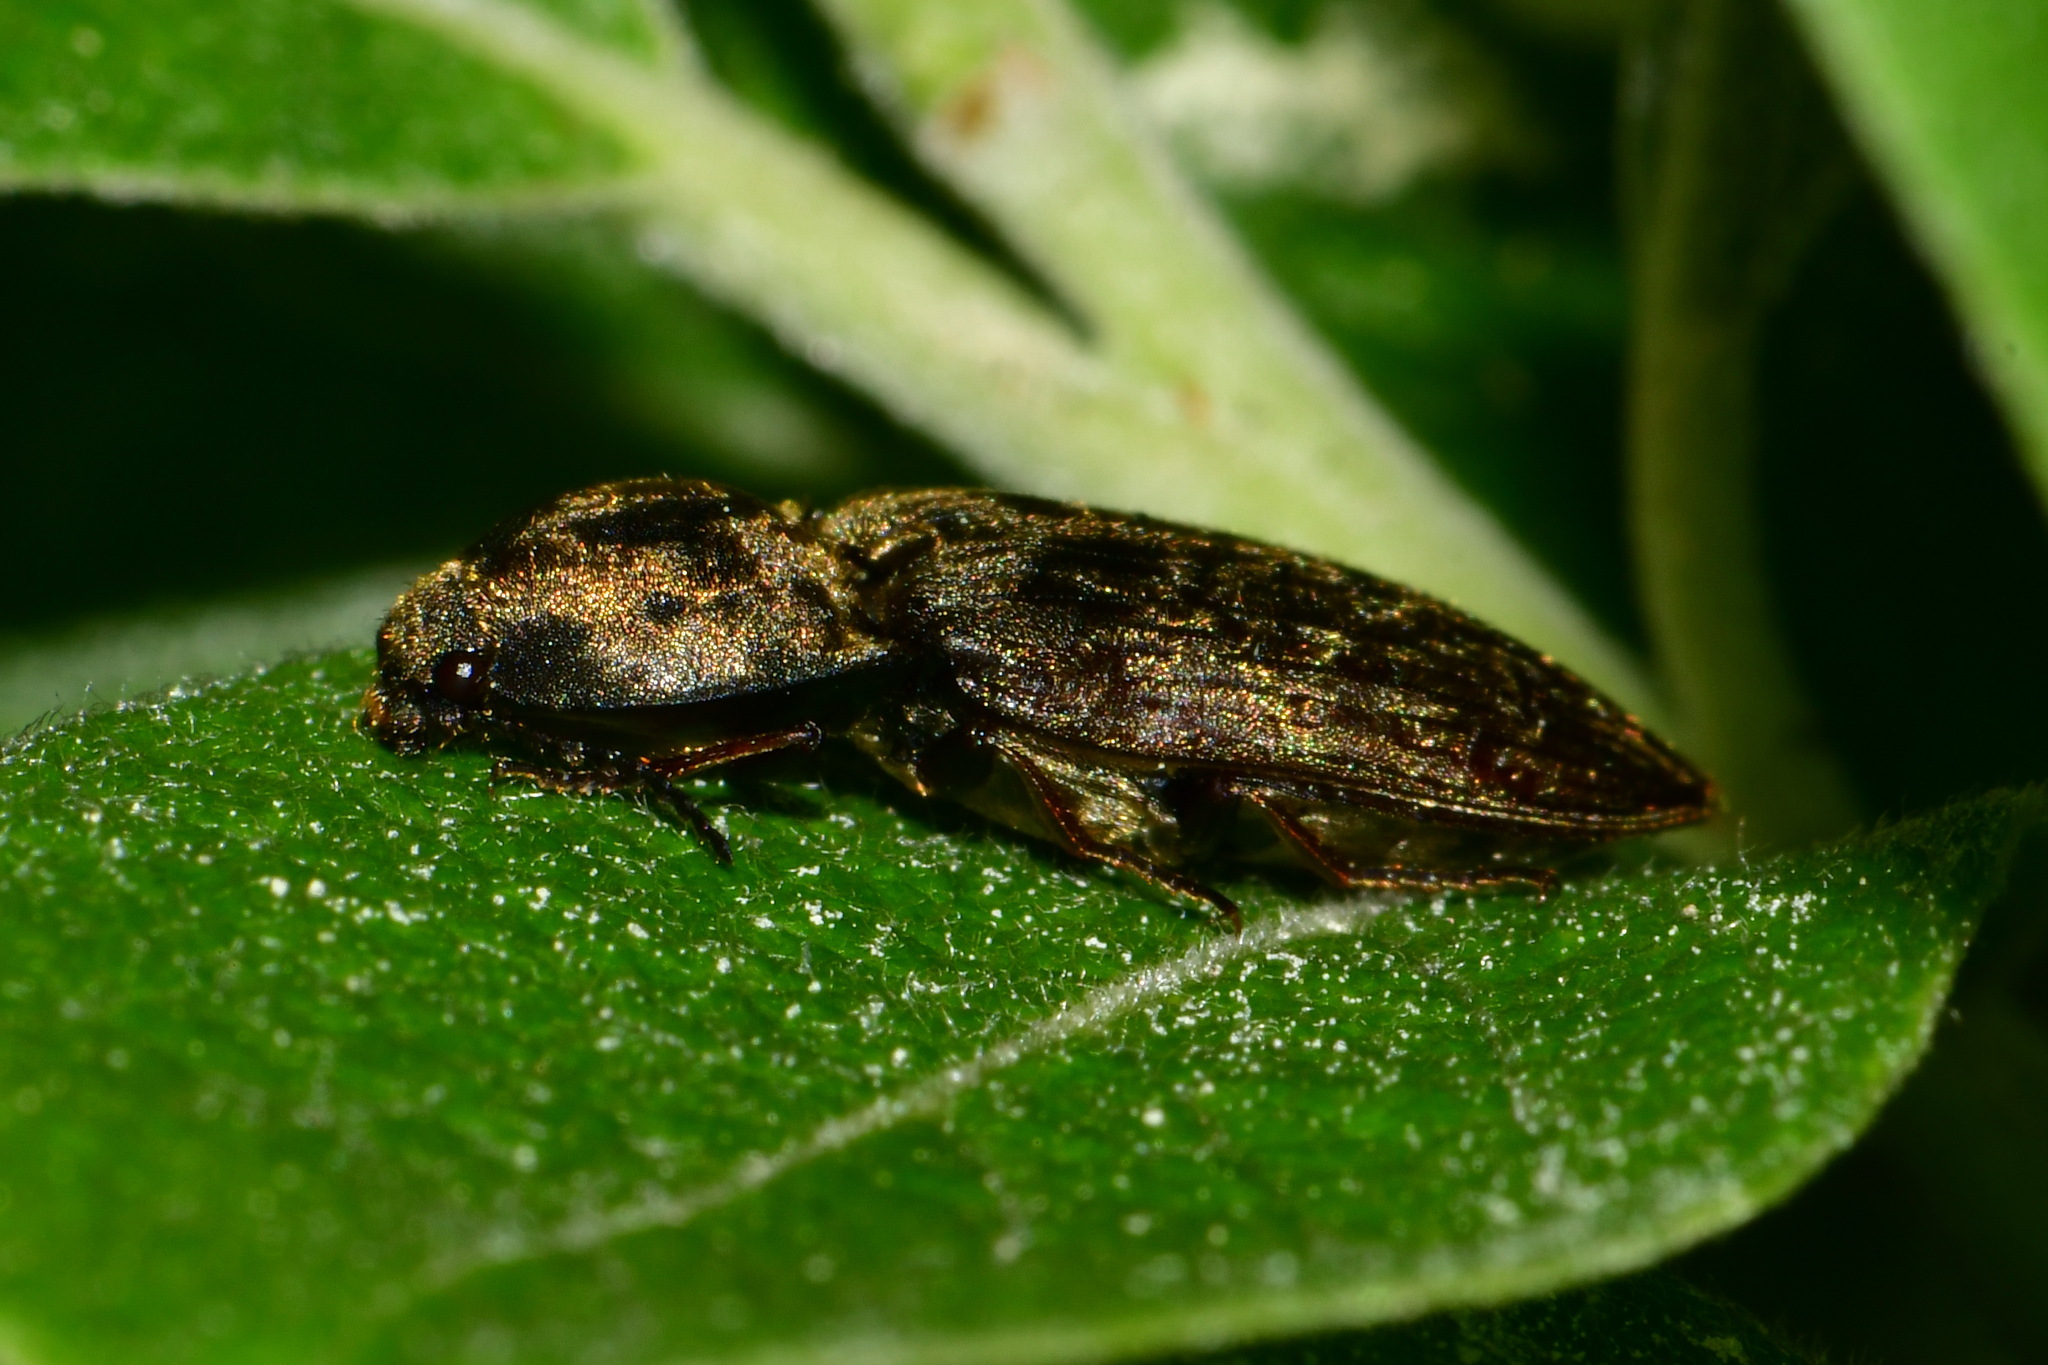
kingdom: Animalia
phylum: Arthropoda
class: Insecta
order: Coleoptera
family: Elateridae
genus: Prosternon
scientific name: Prosternon tessellatum
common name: Chequered click beetle
